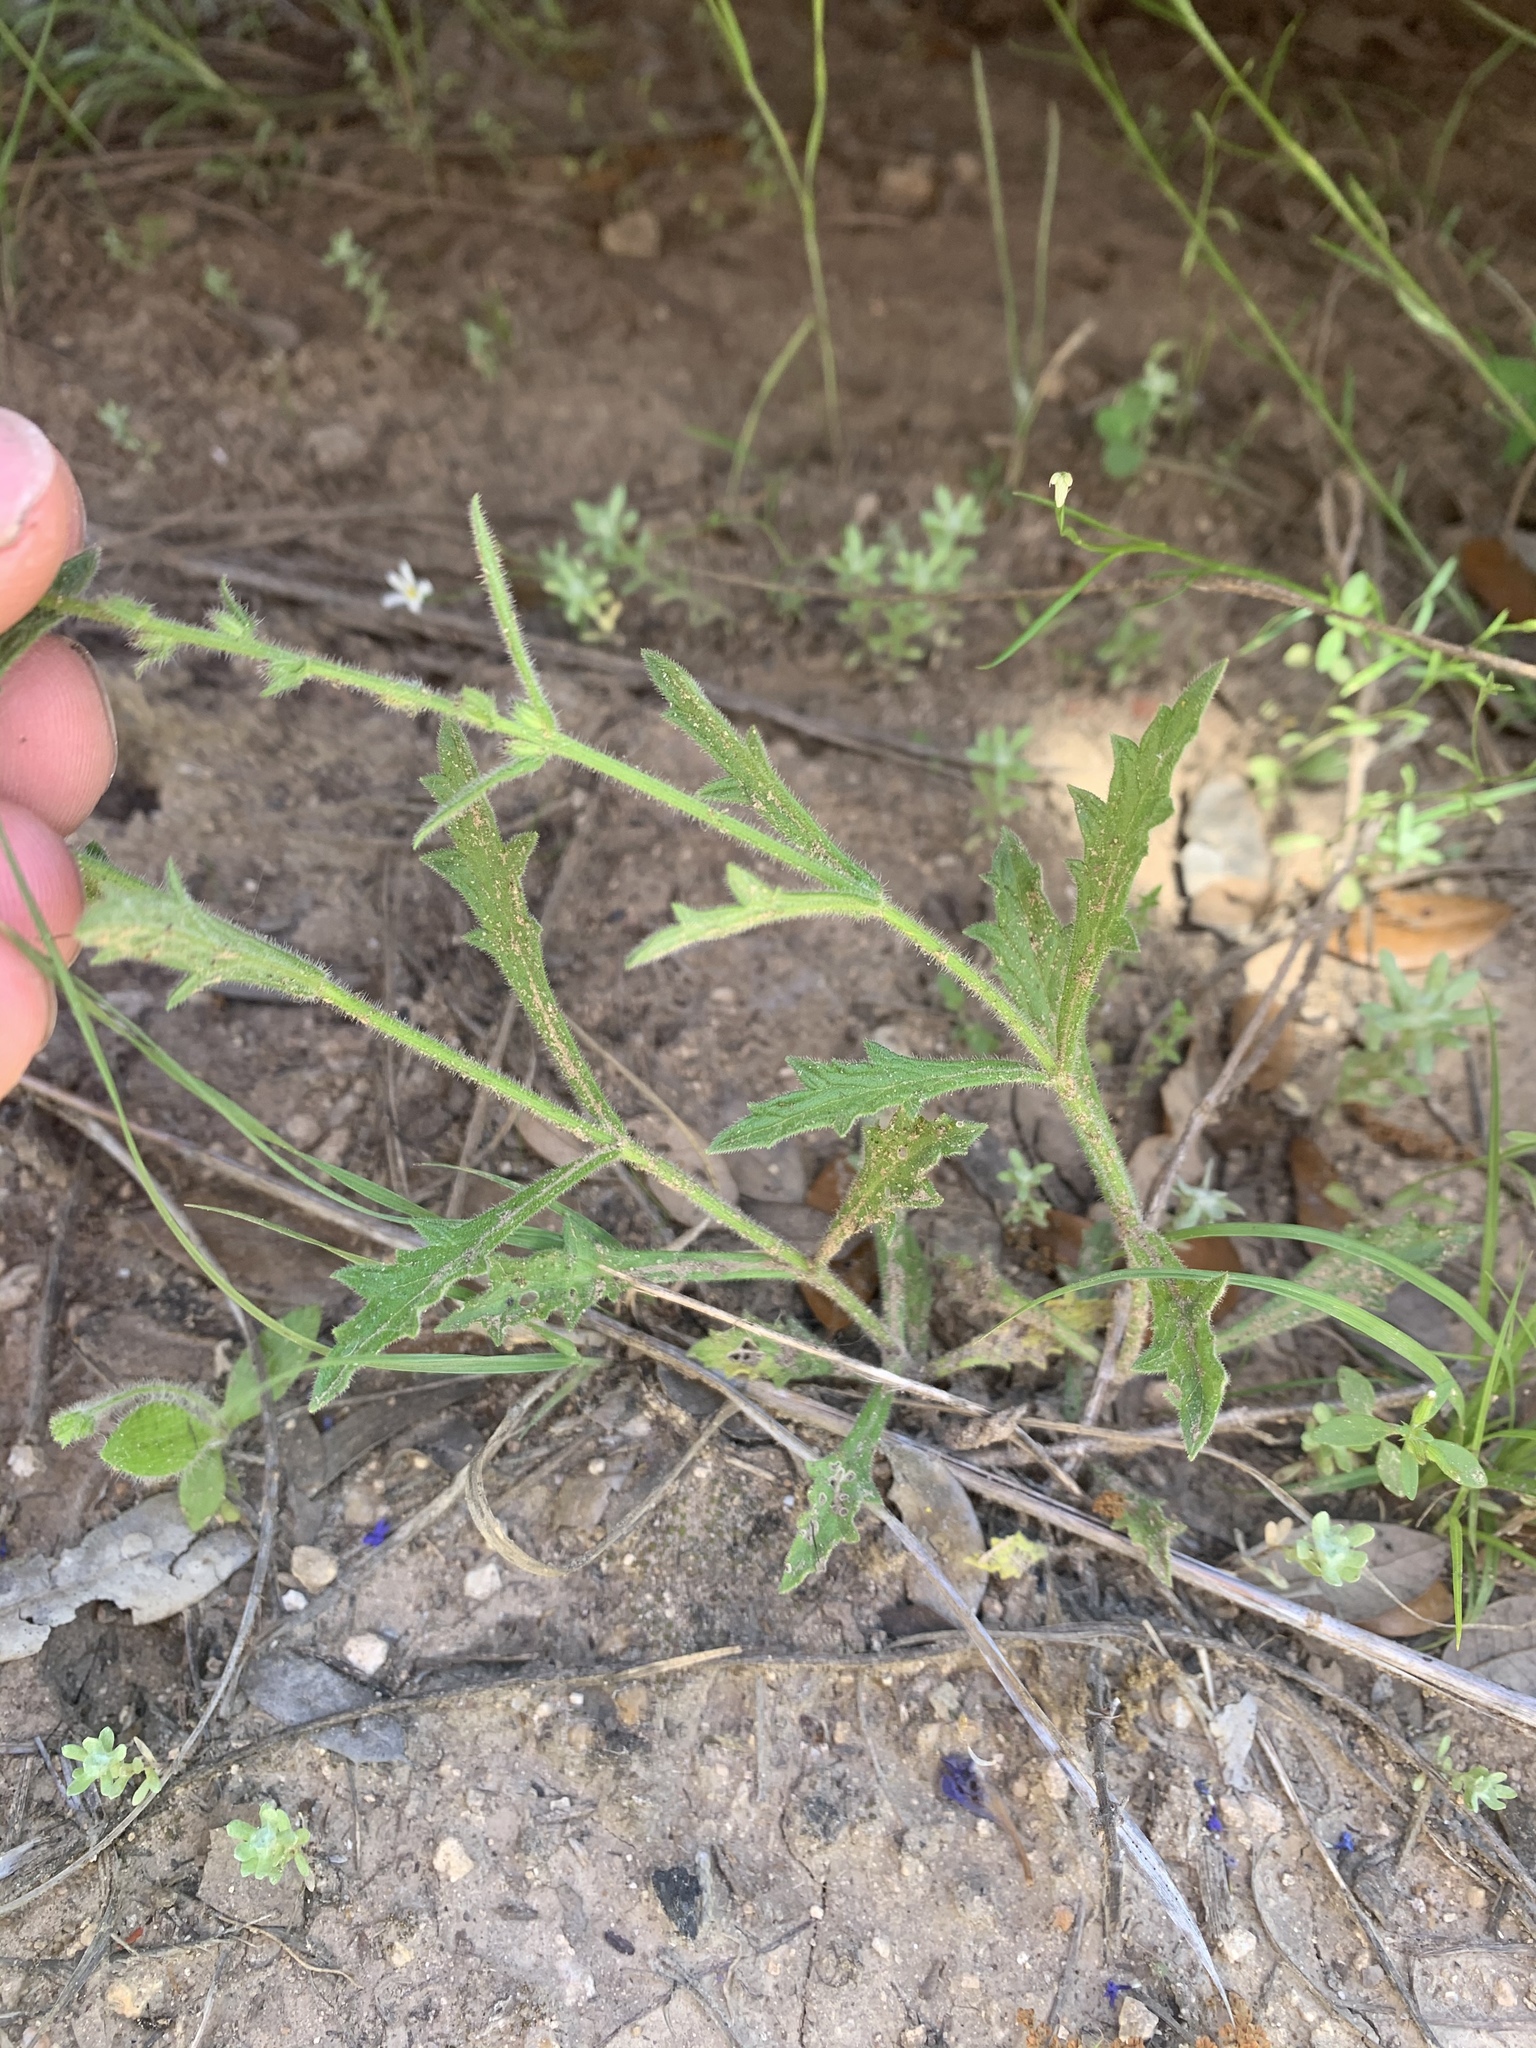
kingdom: Plantae
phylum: Tracheophyta
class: Magnoliopsida
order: Lamiales
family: Verbenaceae
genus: Verbena
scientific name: Verbena halei
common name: Texas vervain
